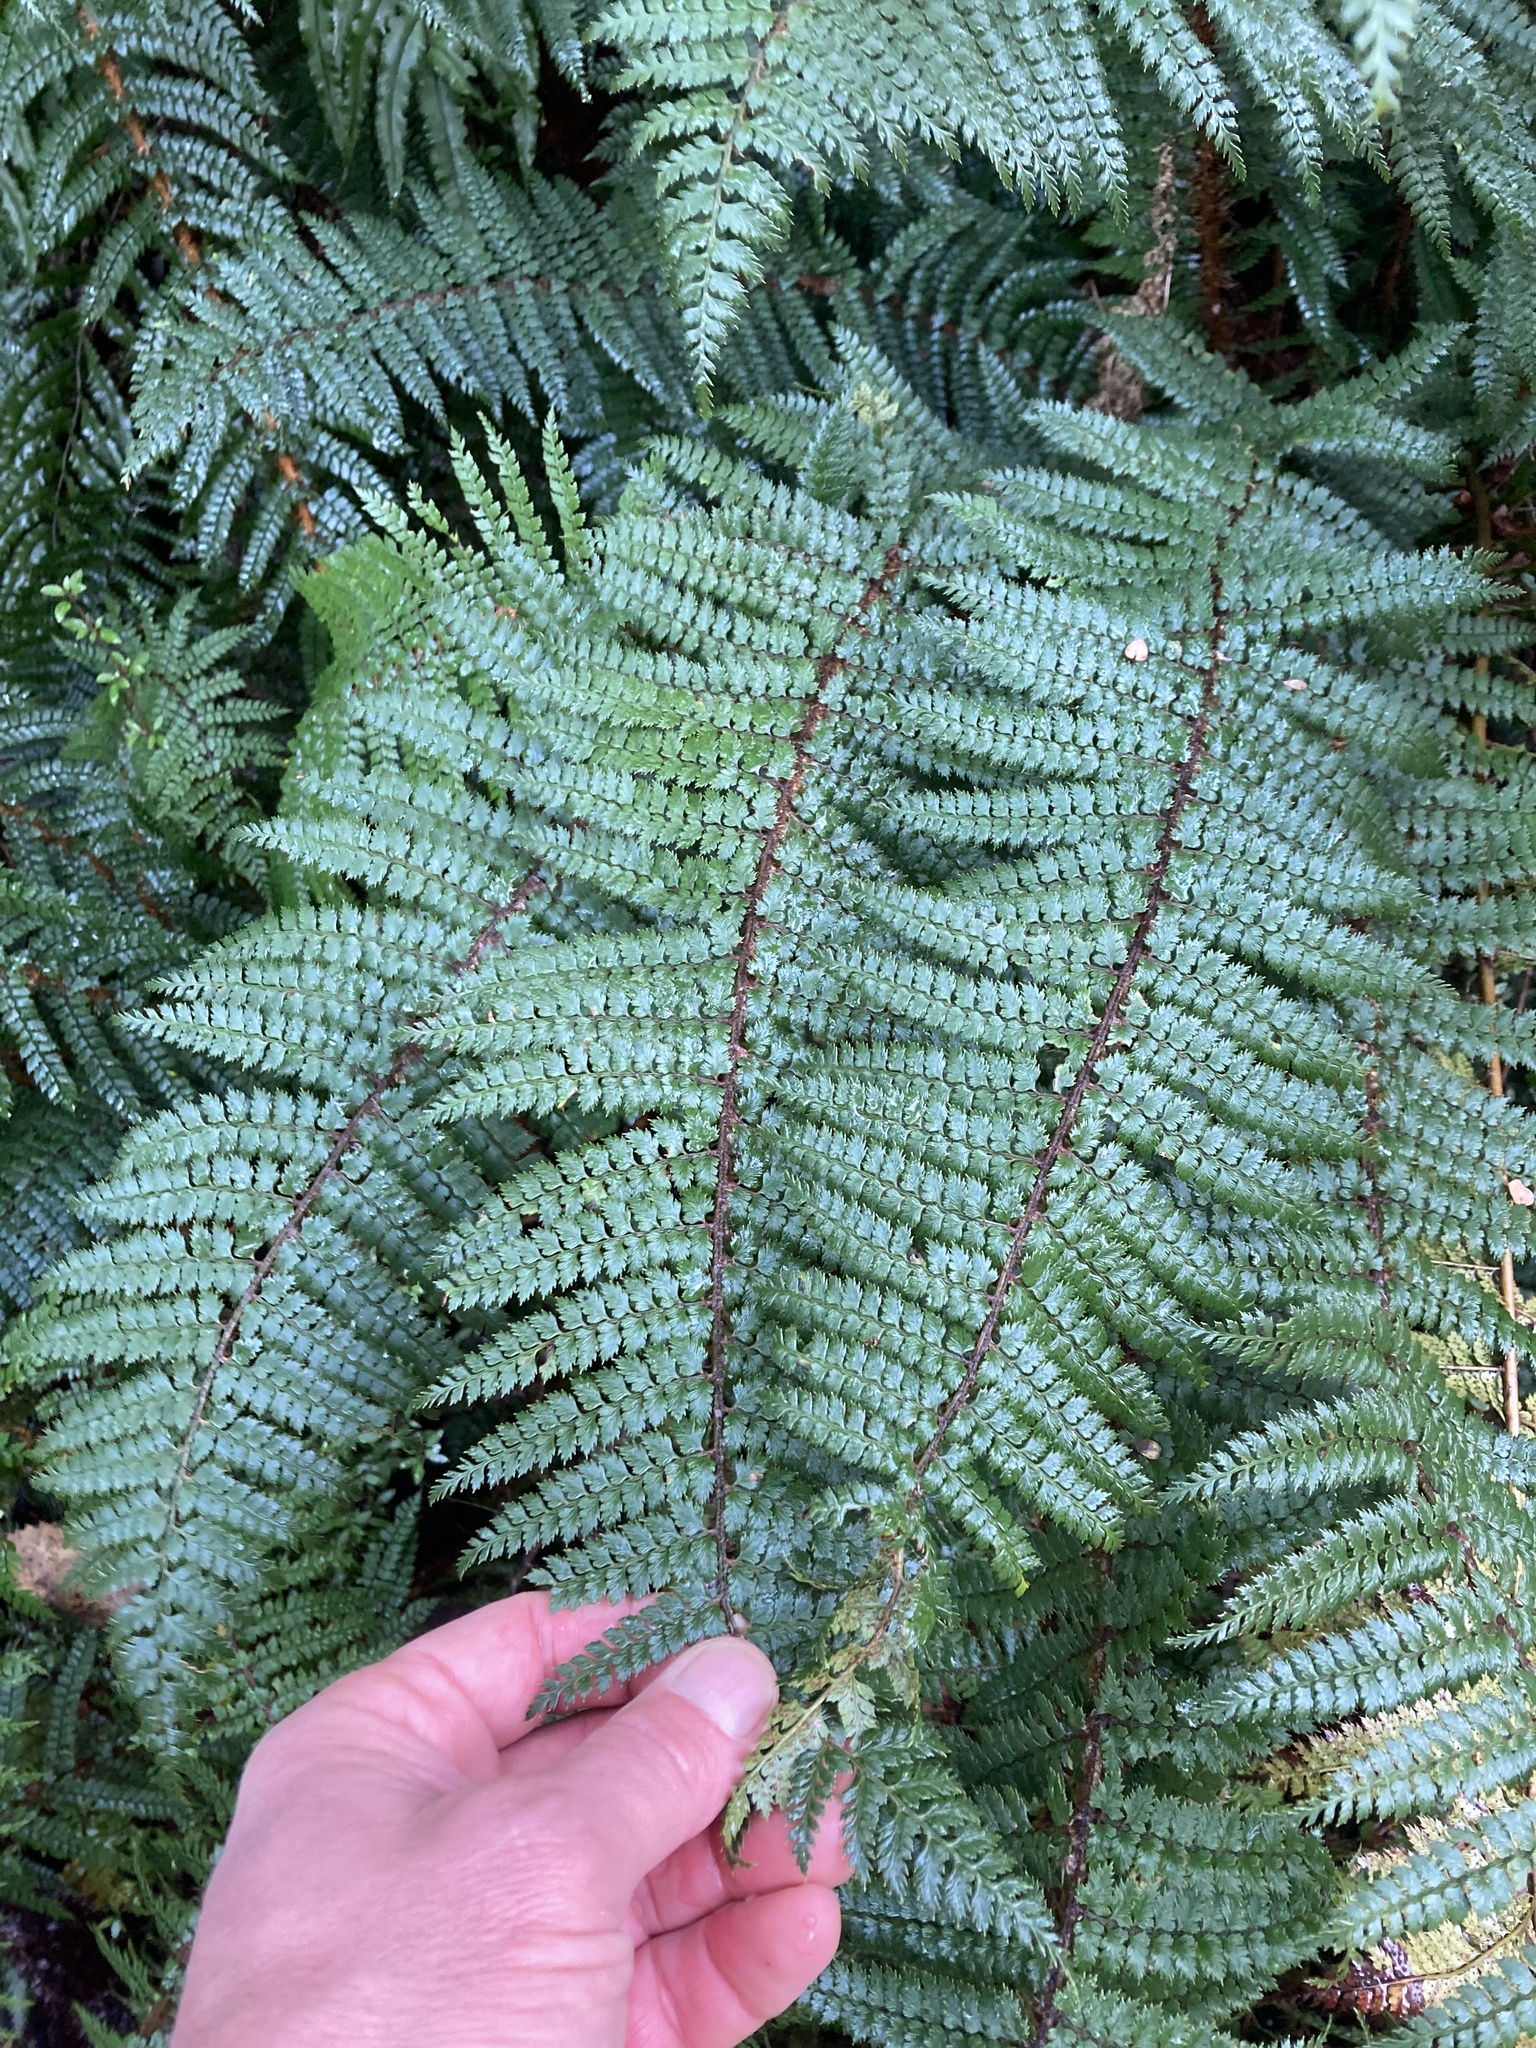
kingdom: Plantae
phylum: Tracheophyta
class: Polypodiopsida
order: Polypodiales
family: Dryopteridaceae
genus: Polystichum
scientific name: Polystichum vestitum
